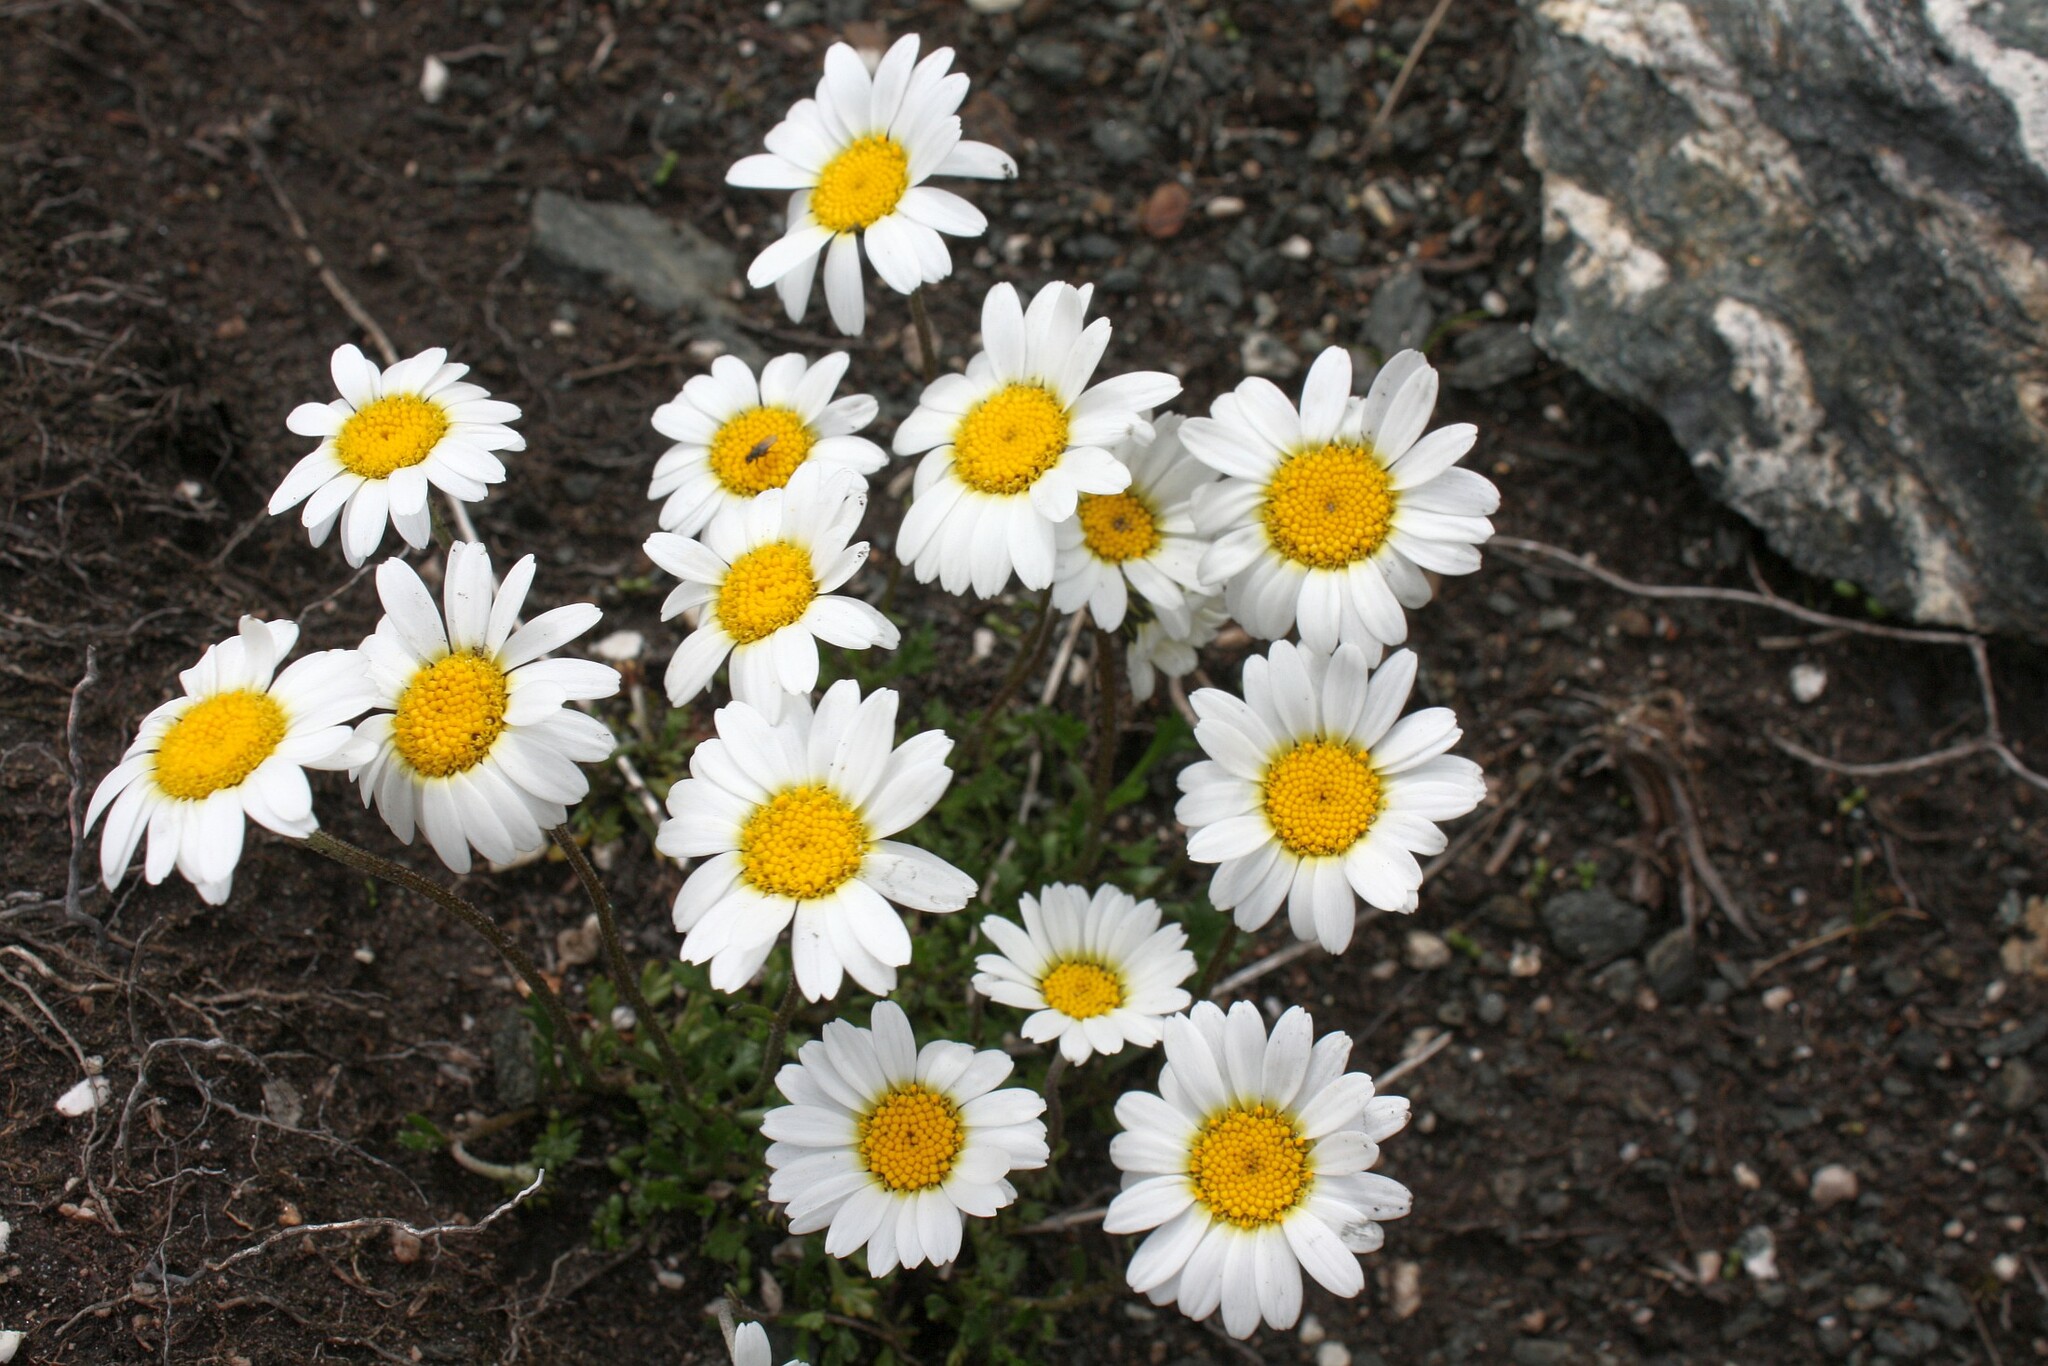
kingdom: Plantae
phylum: Tracheophyta
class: Magnoliopsida
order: Asterales
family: Asteraceae
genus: Leucanthemopsis
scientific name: Leucanthemopsis alpina
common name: Alpine moon daisy
